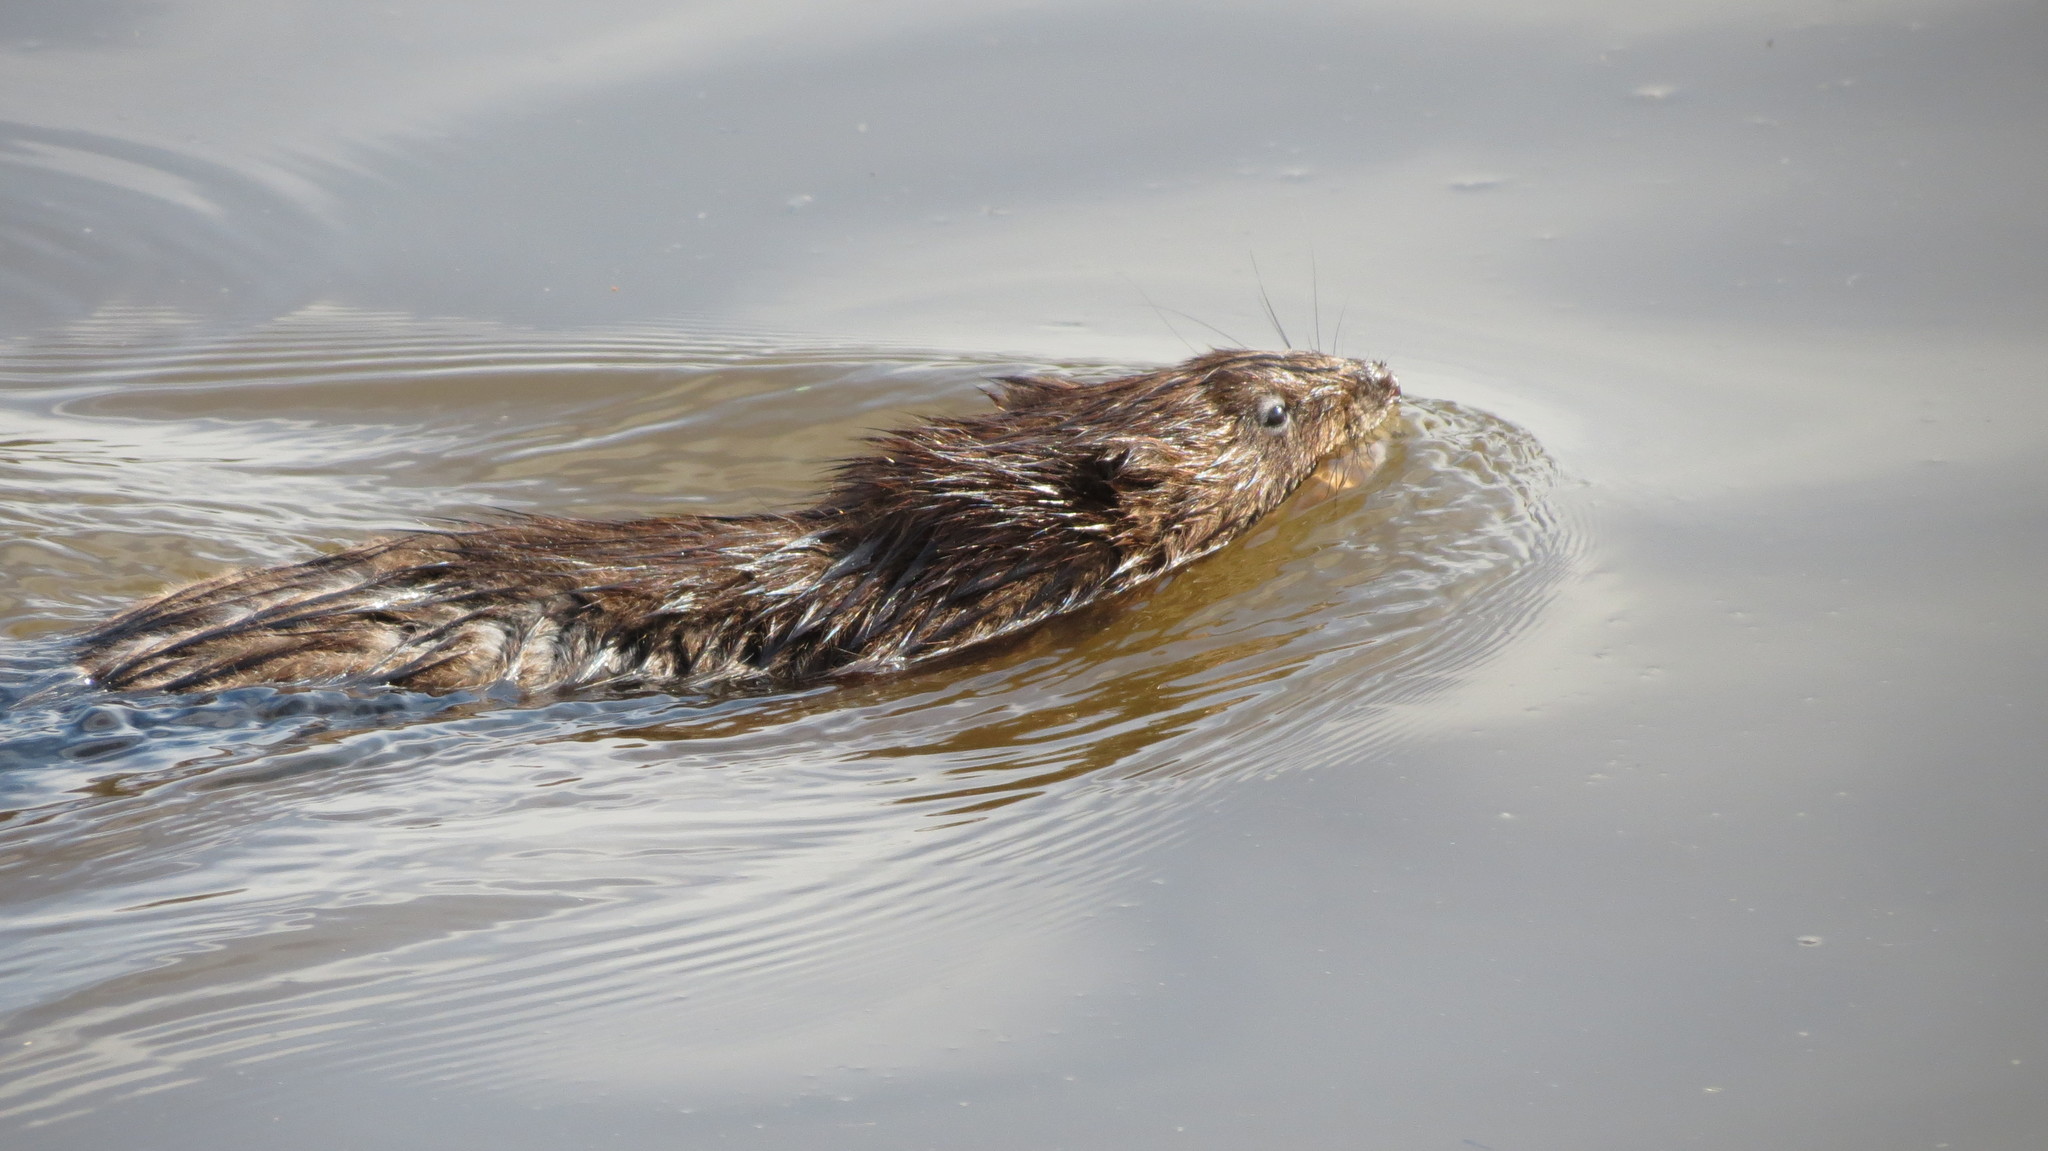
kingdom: Animalia
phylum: Chordata
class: Mammalia
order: Rodentia
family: Cricetidae
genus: Ondatra
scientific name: Ondatra zibethicus
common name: Muskrat
